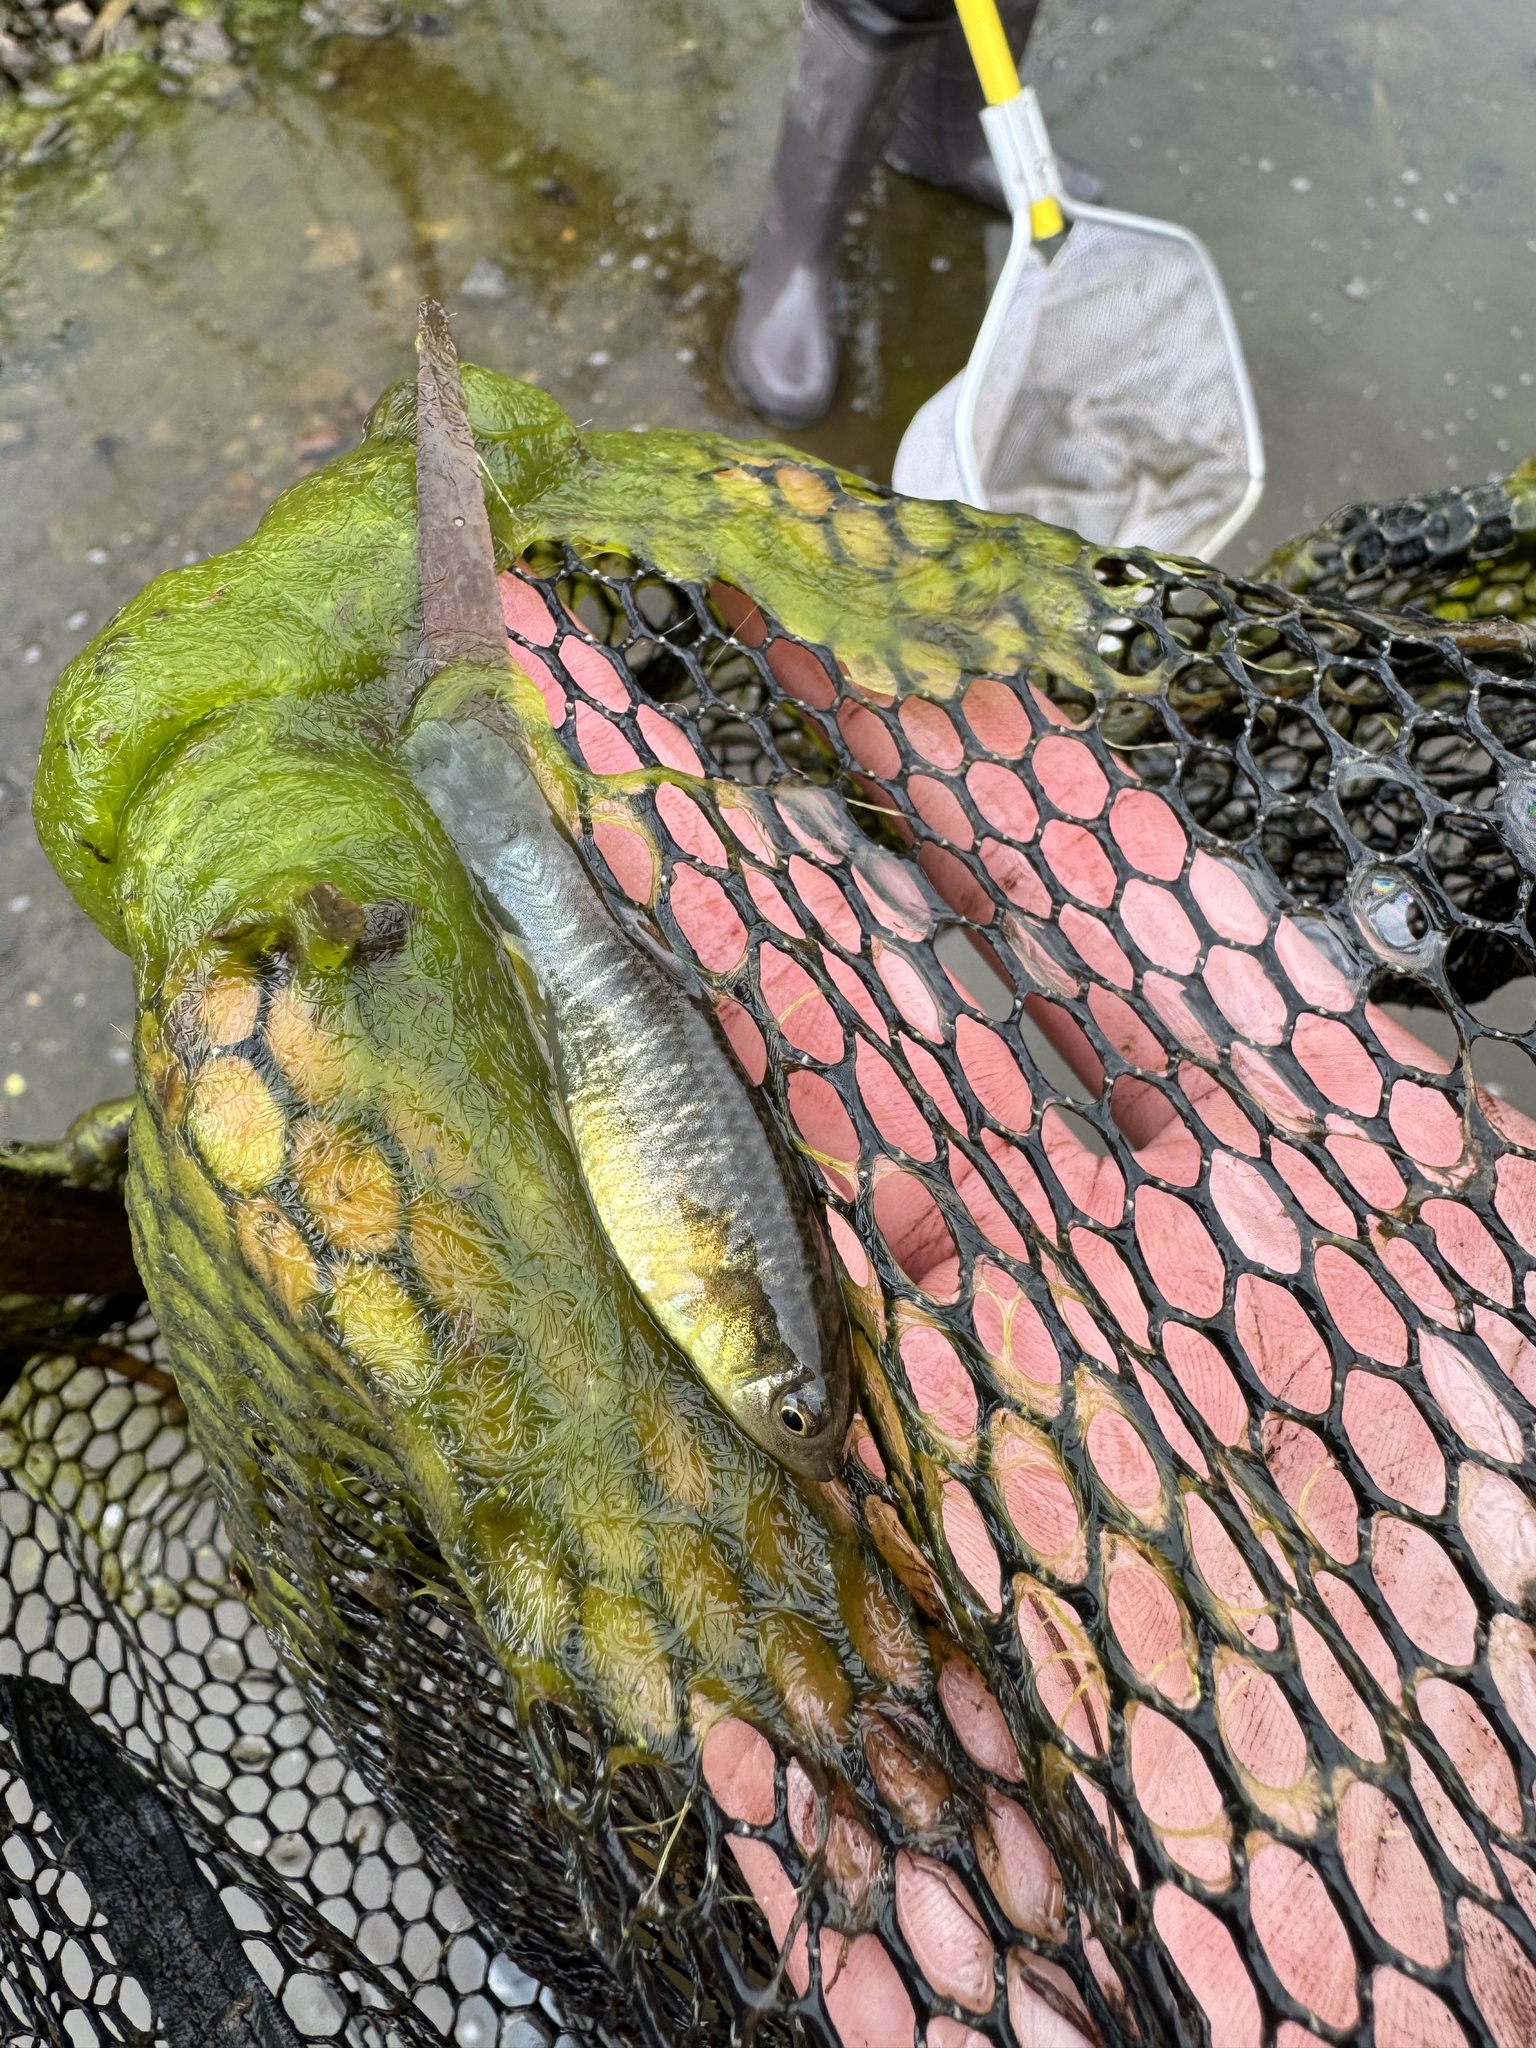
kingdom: Animalia
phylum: Chordata
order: Cyprinodontiformes
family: Fundulidae
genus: Fundulus
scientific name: Fundulus heteroclitus
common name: Mummichog
